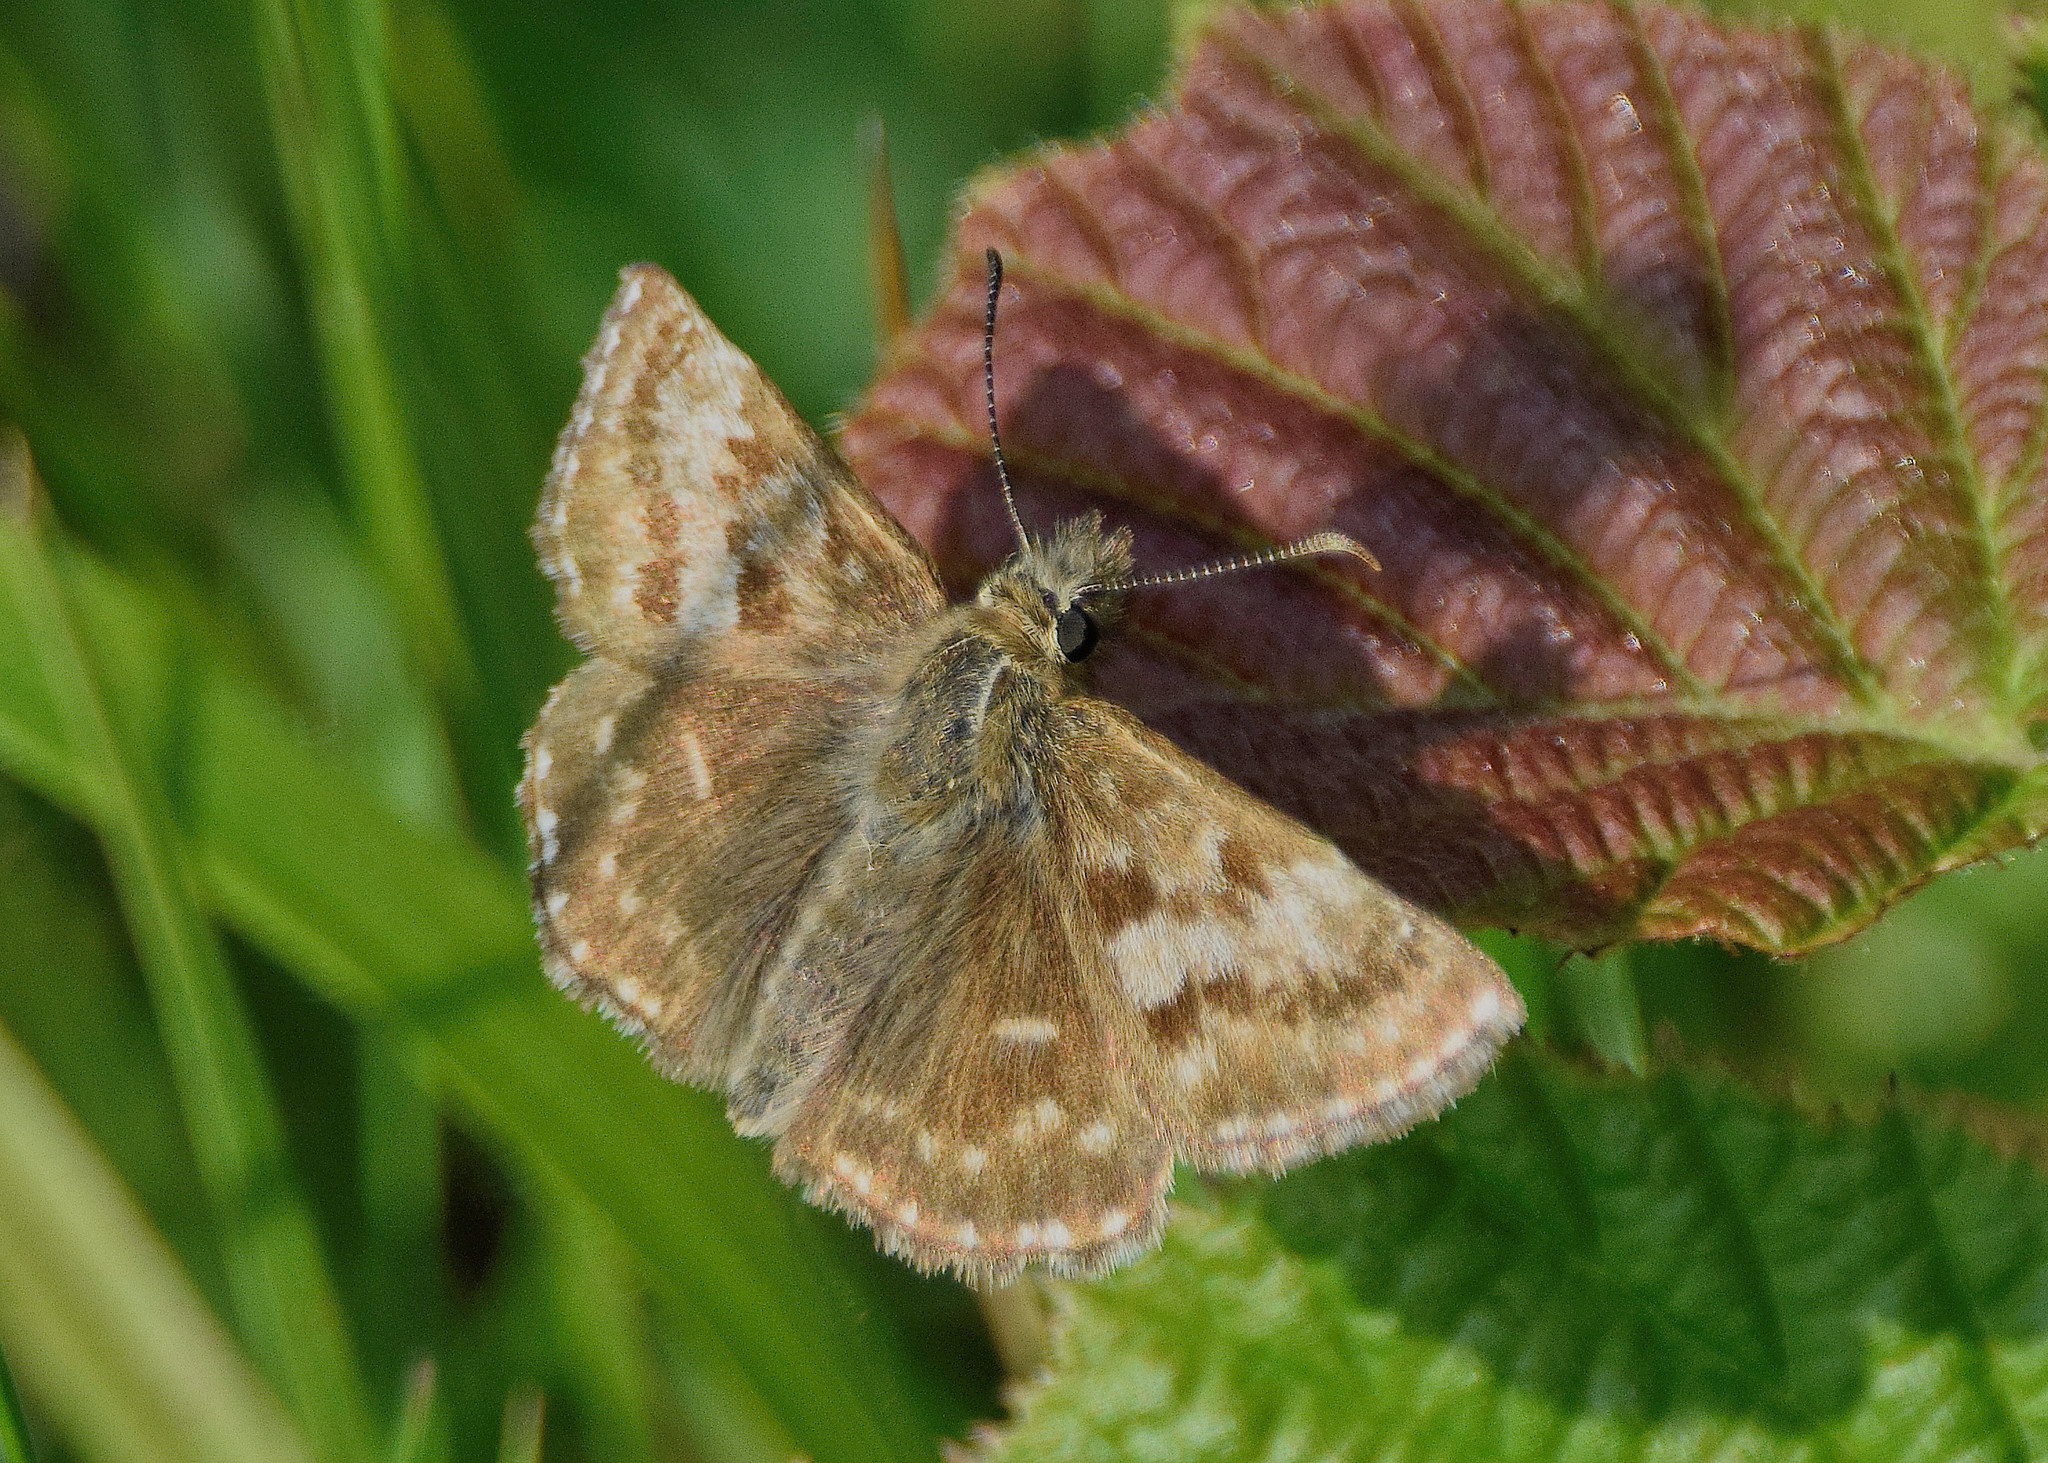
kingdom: Animalia
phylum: Arthropoda
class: Insecta
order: Lepidoptera
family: Hesperiidae
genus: Erynnis
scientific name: Erynnis tages
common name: Dingy skipper
